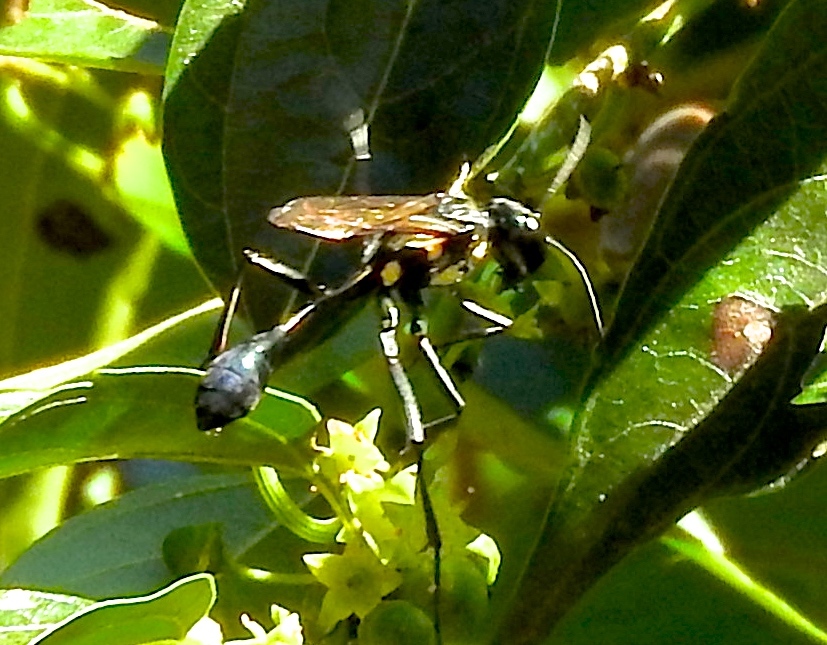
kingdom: Animalia
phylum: Arthropoda
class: Insecta
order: Hymenoptera
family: Sphecidae
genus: Eremnophila
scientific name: Eremnophila aureonotata
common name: Gold-marked thread-waisted wasp
